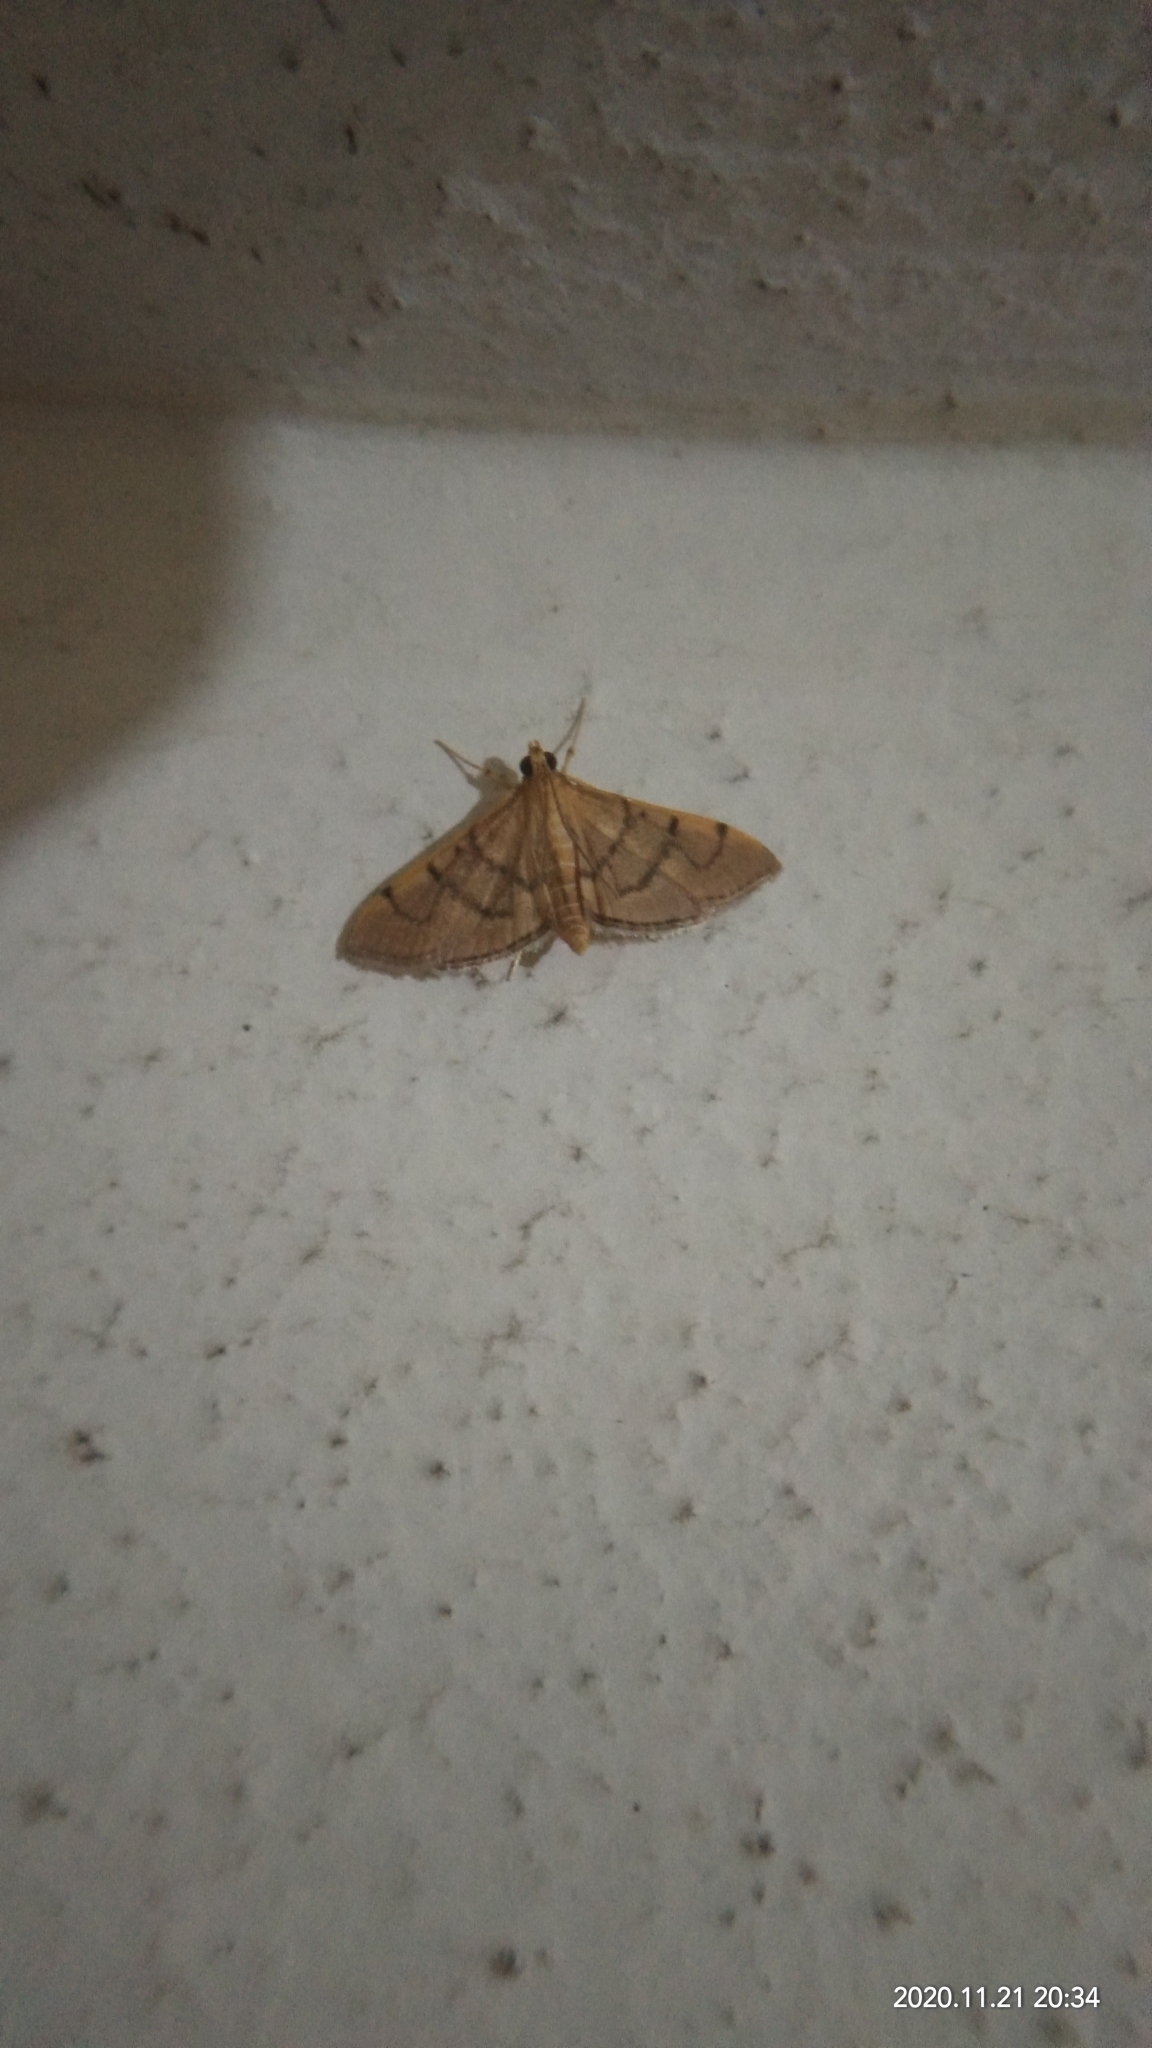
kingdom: Animalia
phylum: Arthropoda
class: Insecta
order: Lepidoptera
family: Crambidae
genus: Omiodes
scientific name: Omiodes indicata
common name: Bean-leaf webworm moth
